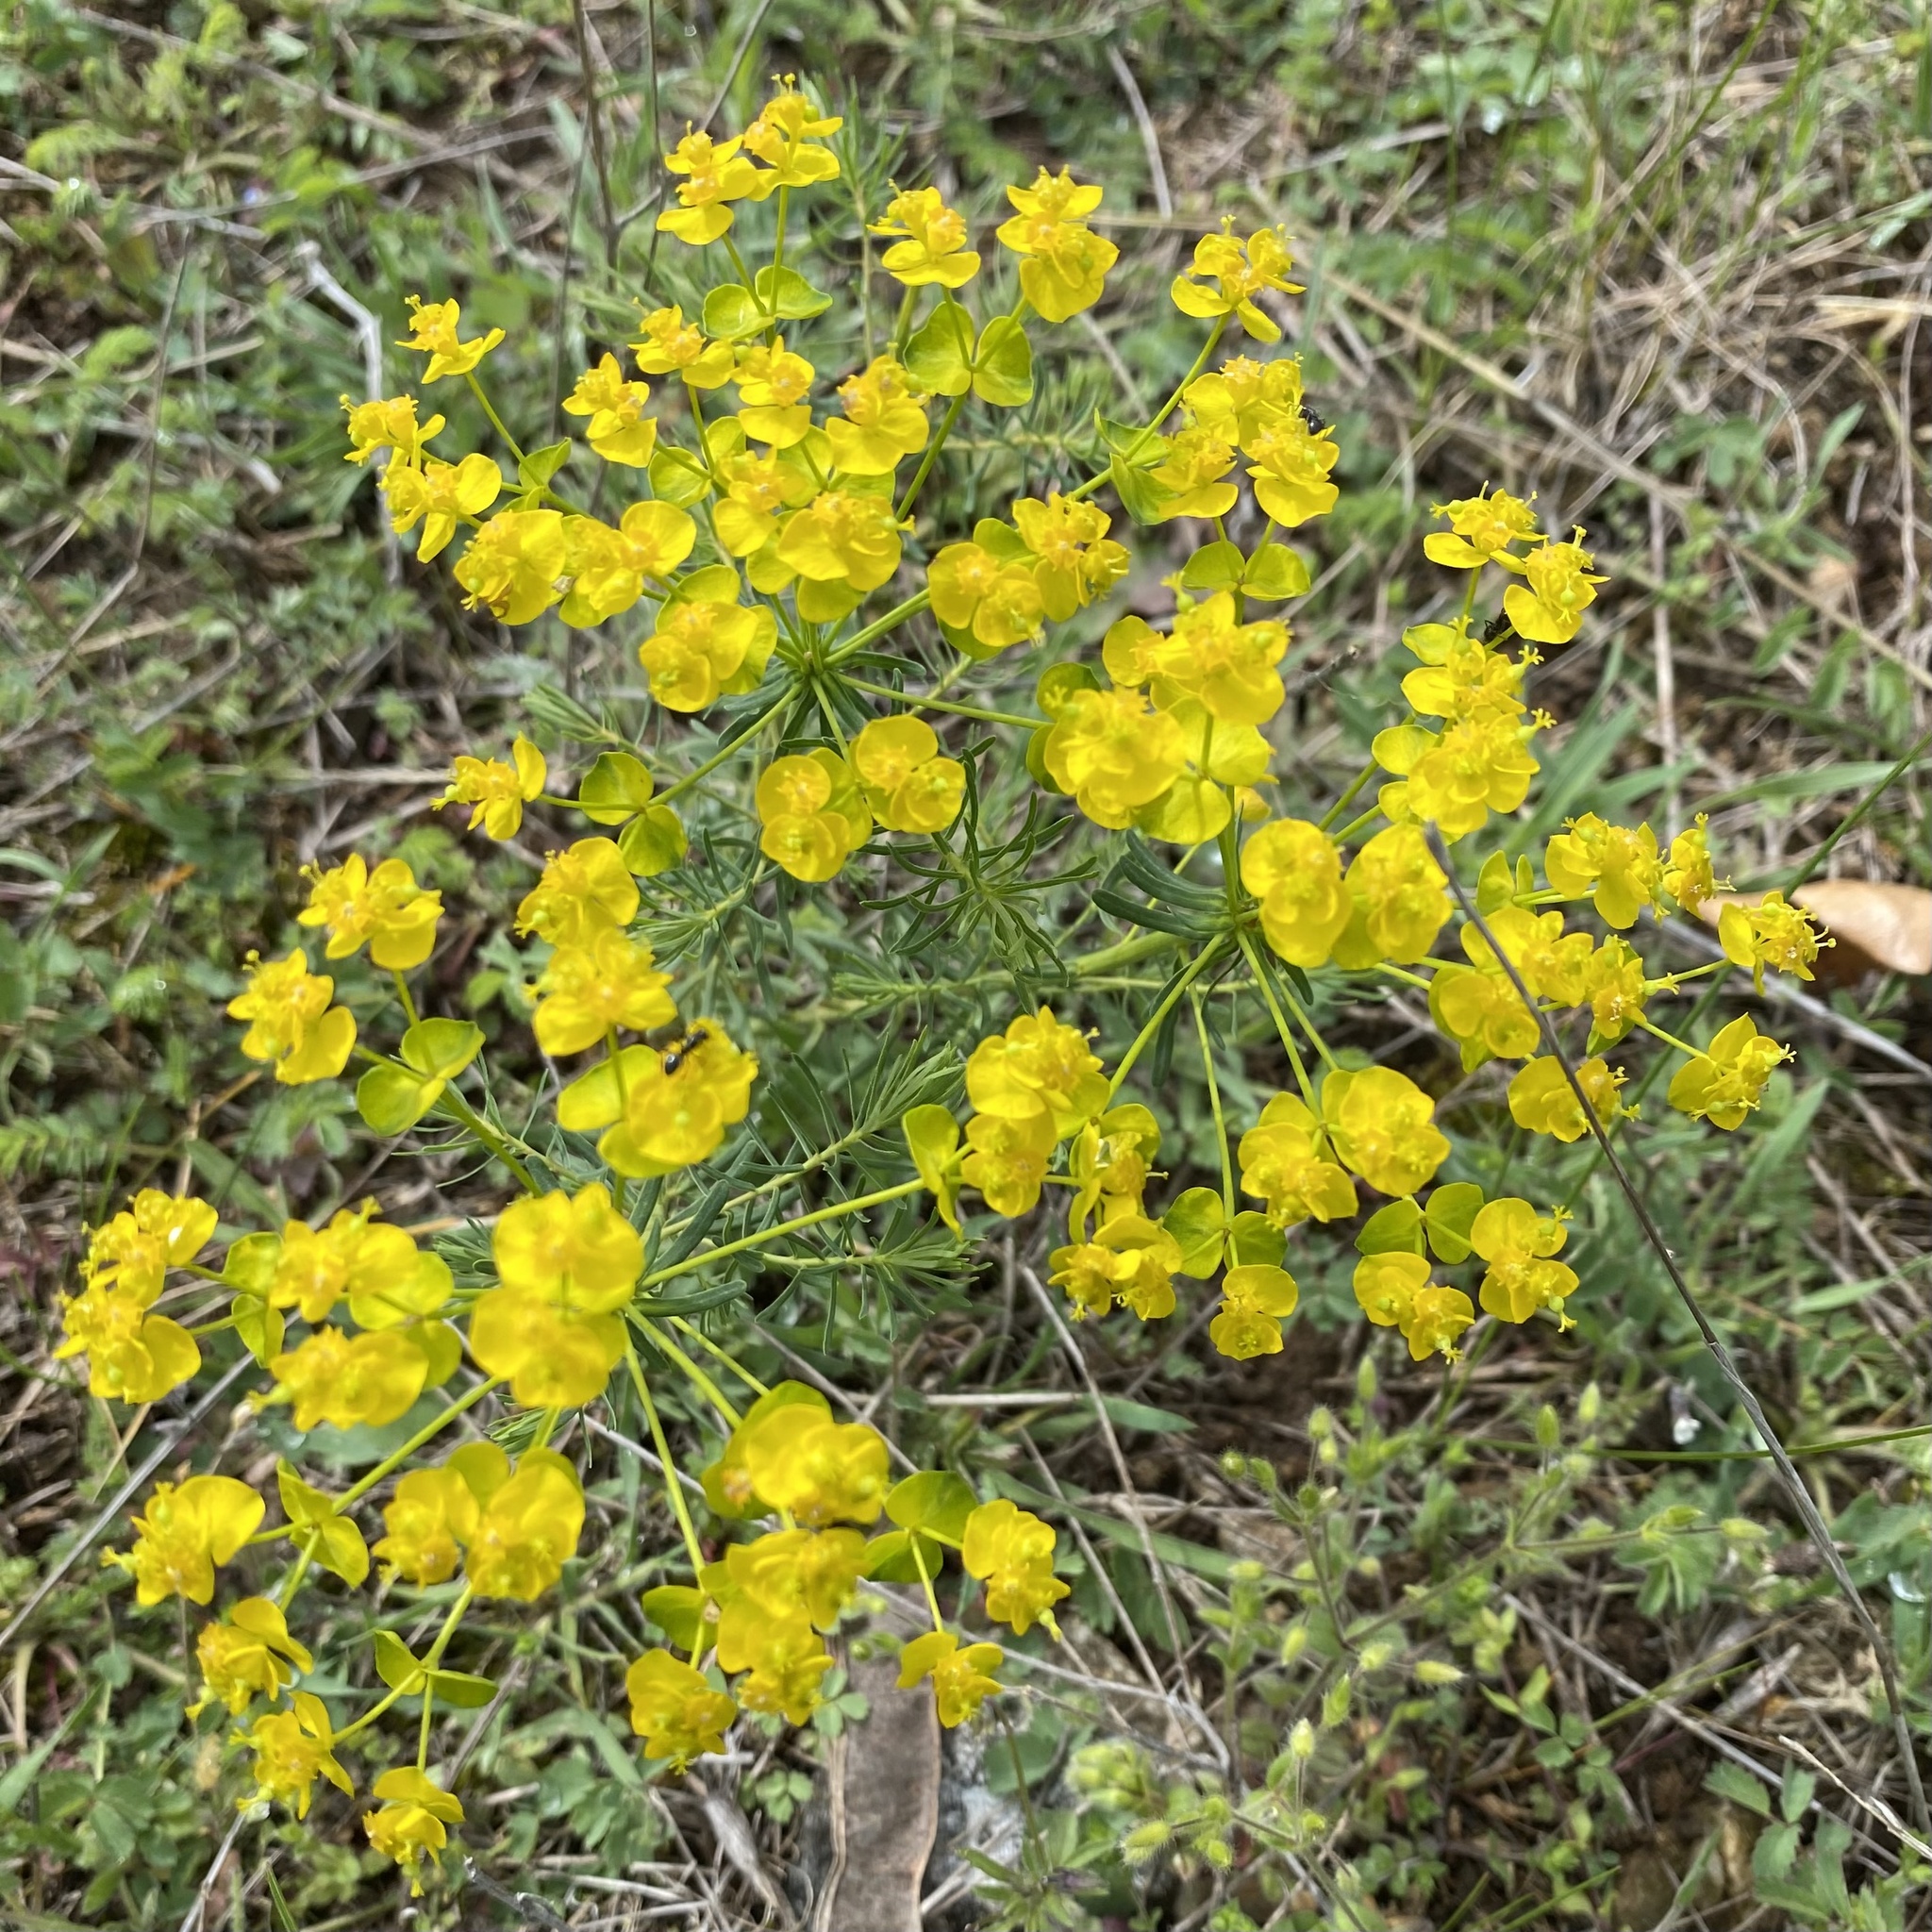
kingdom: Plantae
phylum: Tracheophyta
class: Magnoliopsida
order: Malpighiales
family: Euphorbiaceae
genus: Euphorbia
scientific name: Euphorbia cyparissias
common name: Cypress spurge
